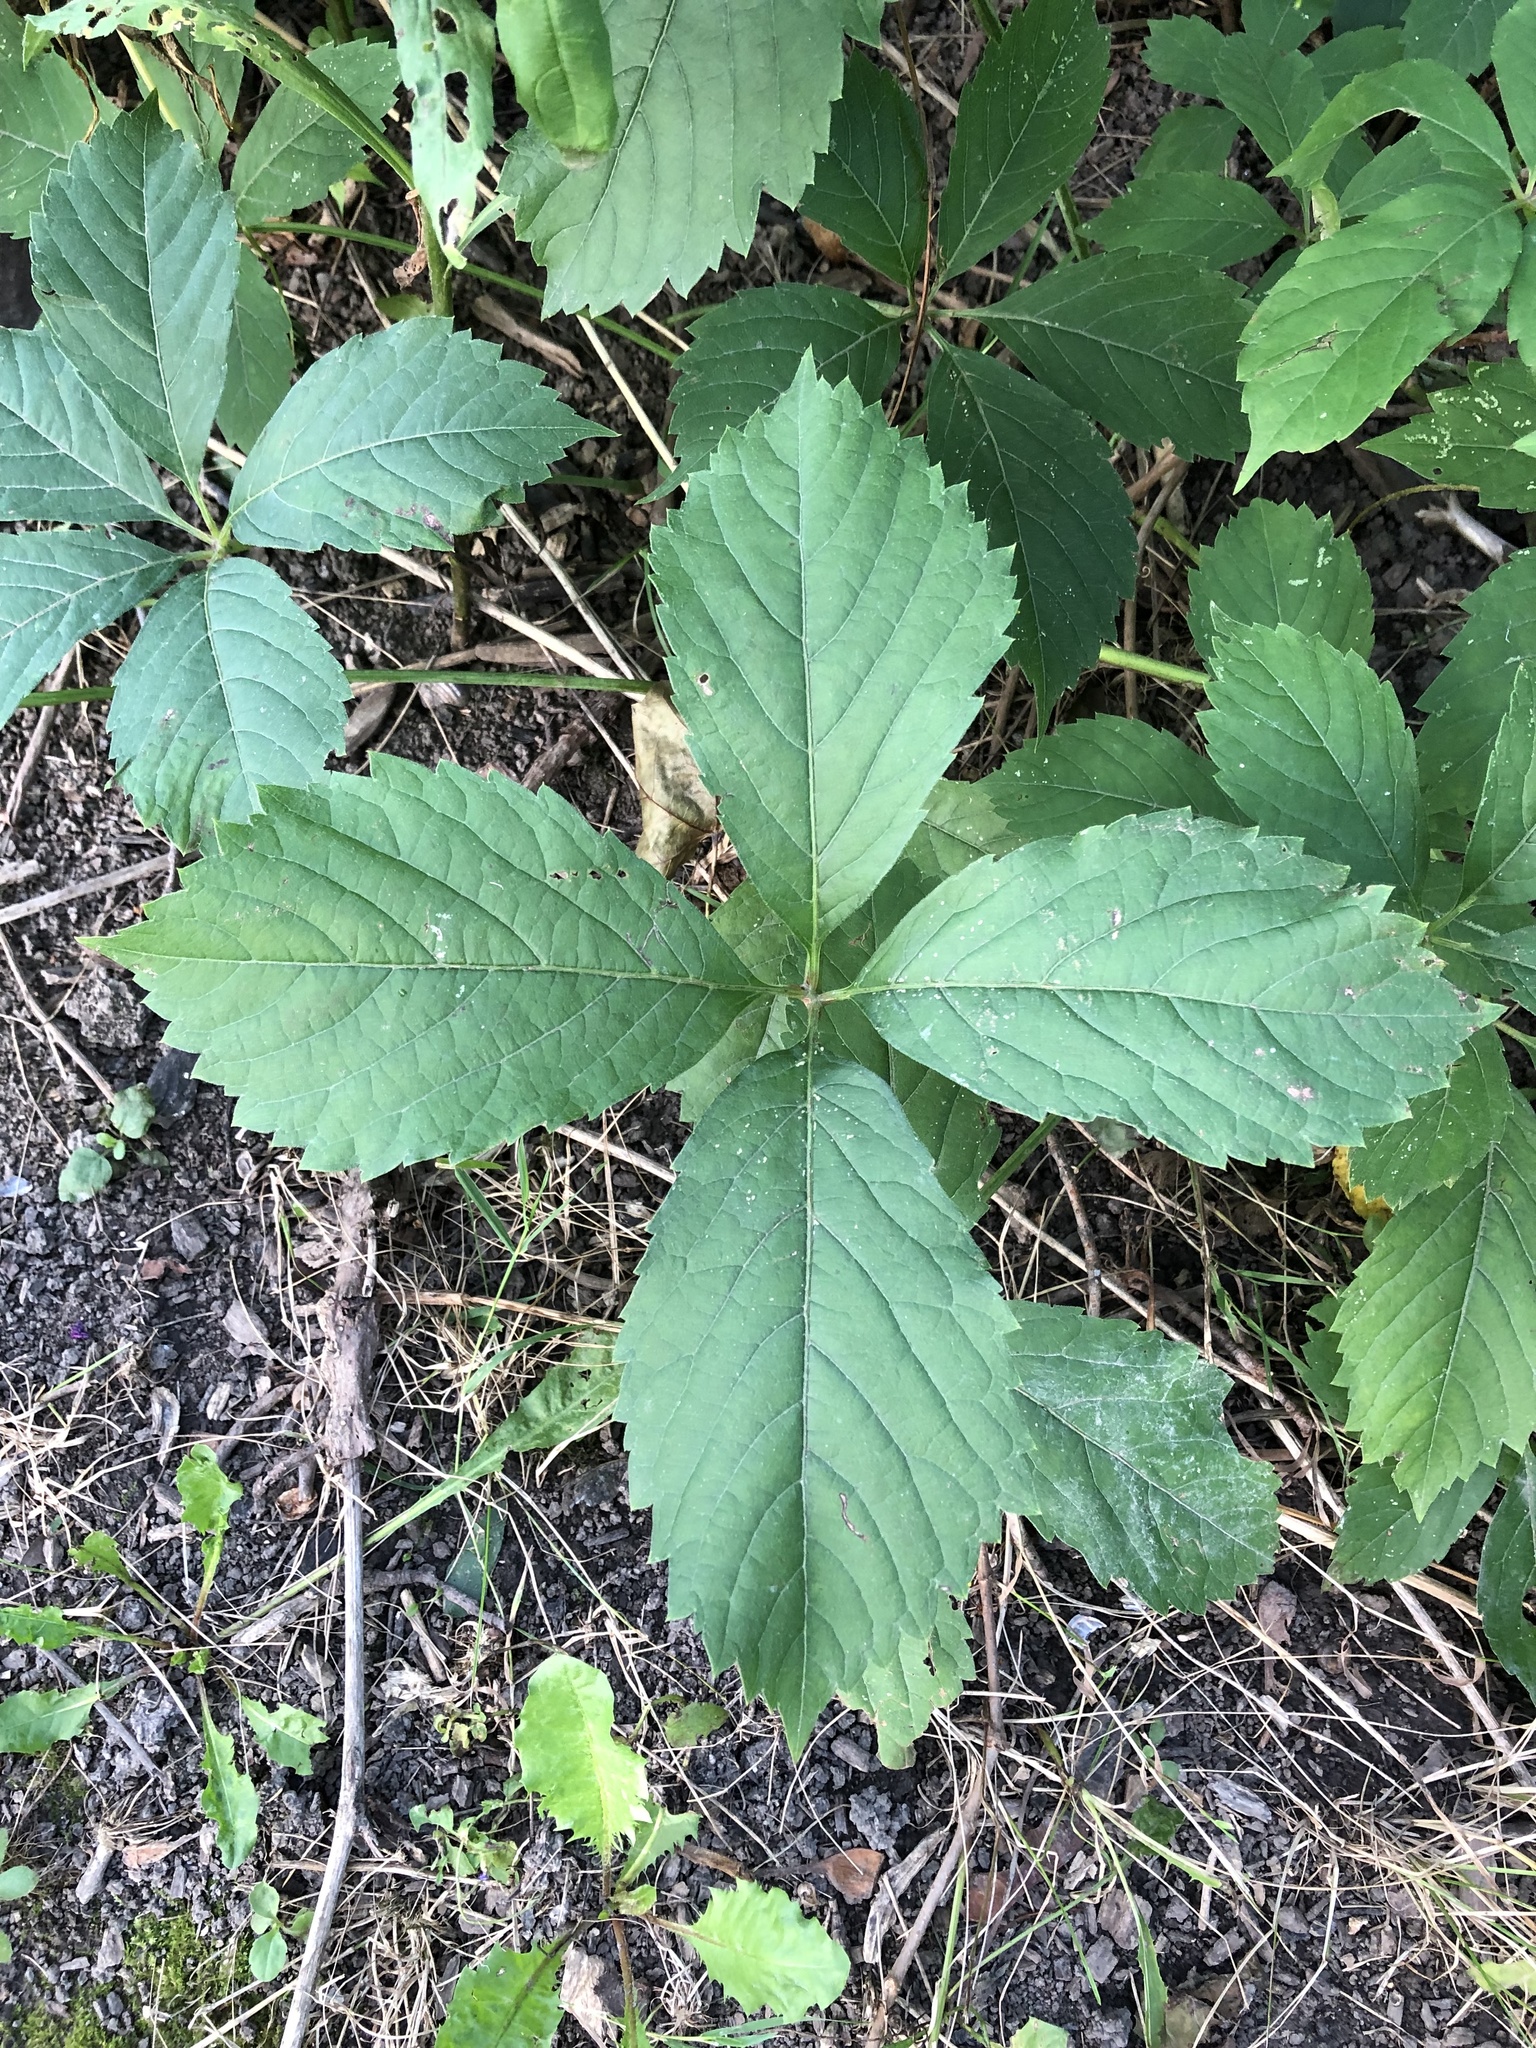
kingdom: Plantae
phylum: Tracheophyta
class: Magnoliopsida
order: Vitales
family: Vitaceae
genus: Parthenocissus
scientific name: Parthenocissus inserta
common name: False virginia-creeper
